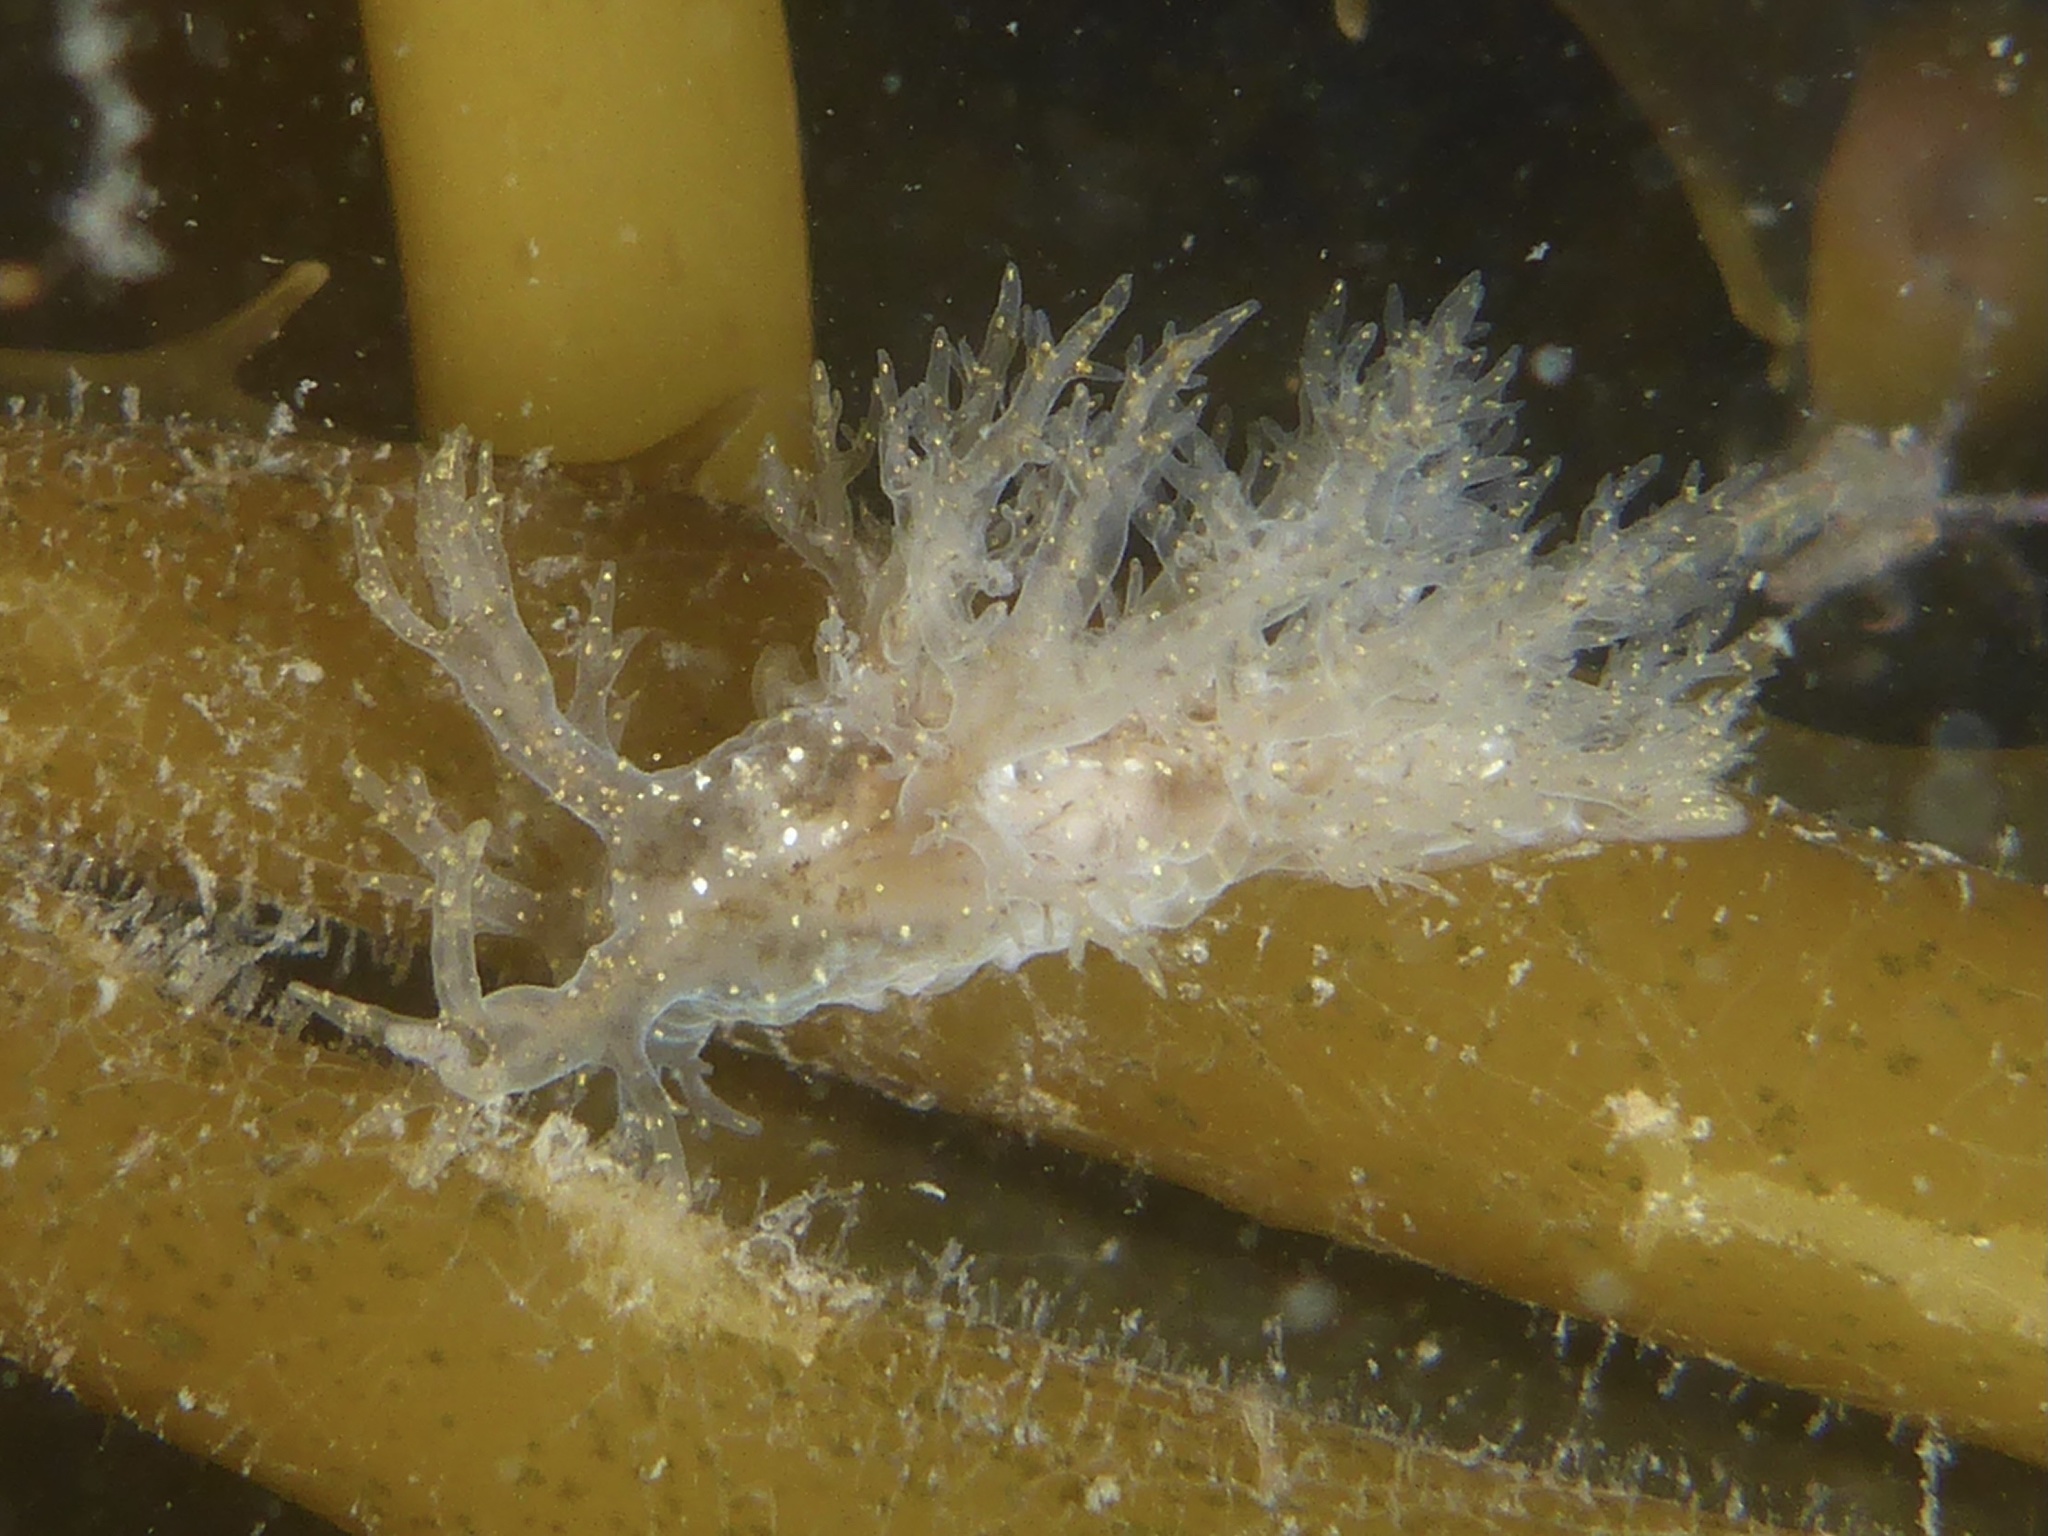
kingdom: Animalia
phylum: Mollusca
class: Gastropoda
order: Nudibranchia
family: Dendronotidae
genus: Dendronotus
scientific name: Dendronotus venustus
